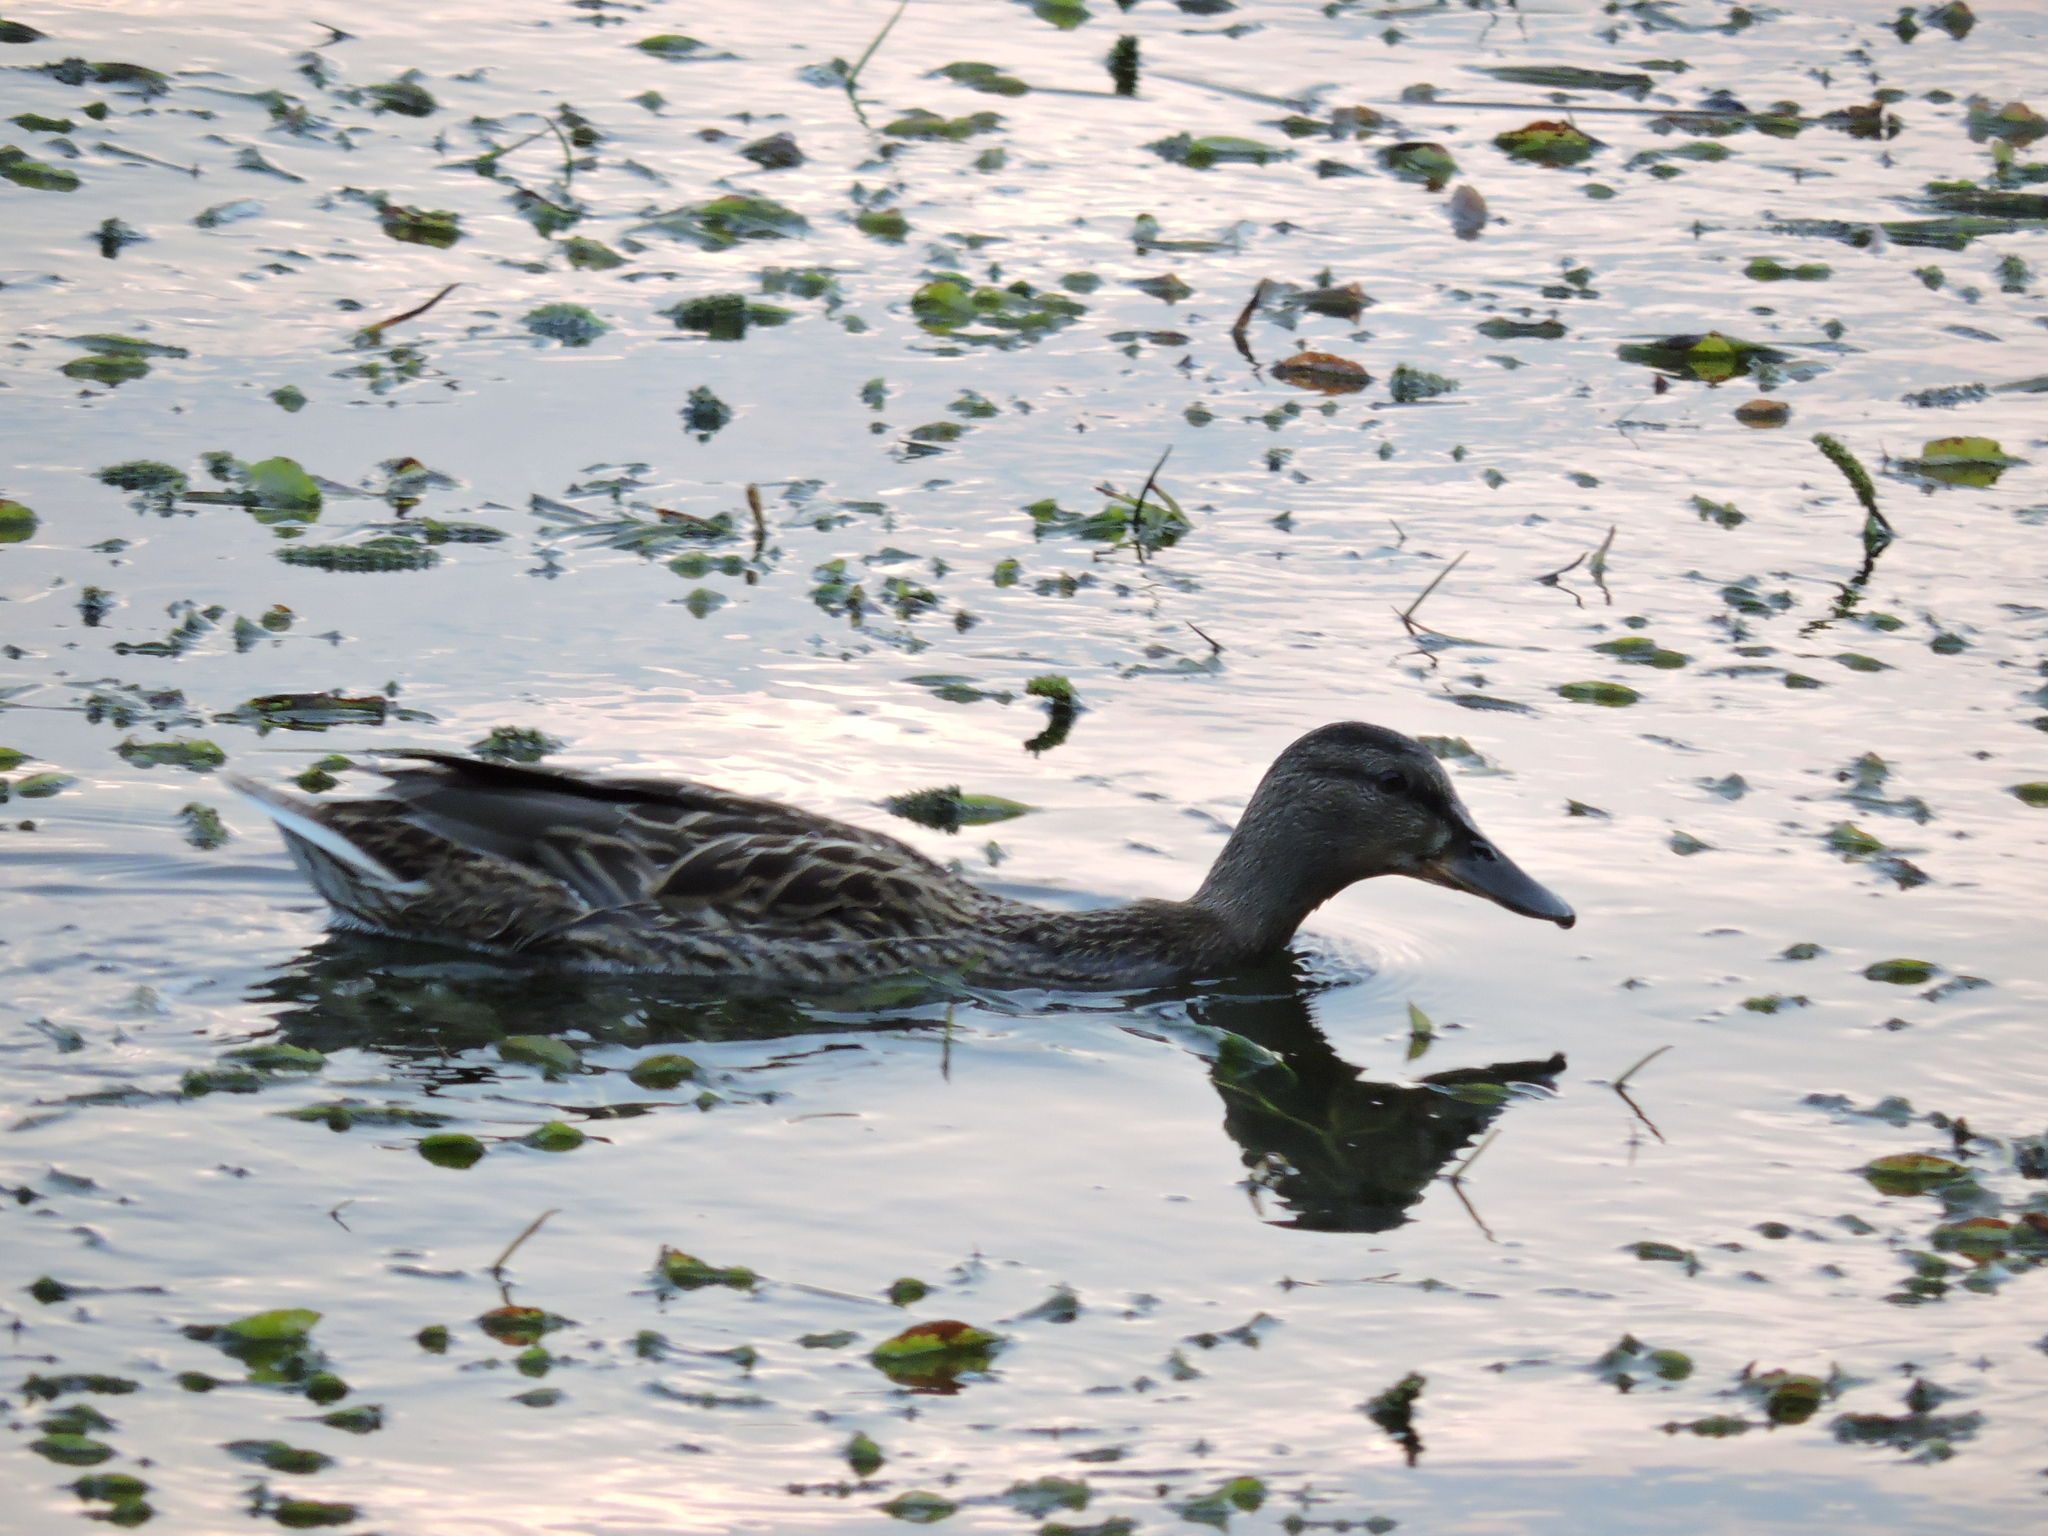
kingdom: Animalia
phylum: Chordata
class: Aves
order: Anseriformes
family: Anatidae
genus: Anas
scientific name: Anas platyrhynchos
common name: Mallard
